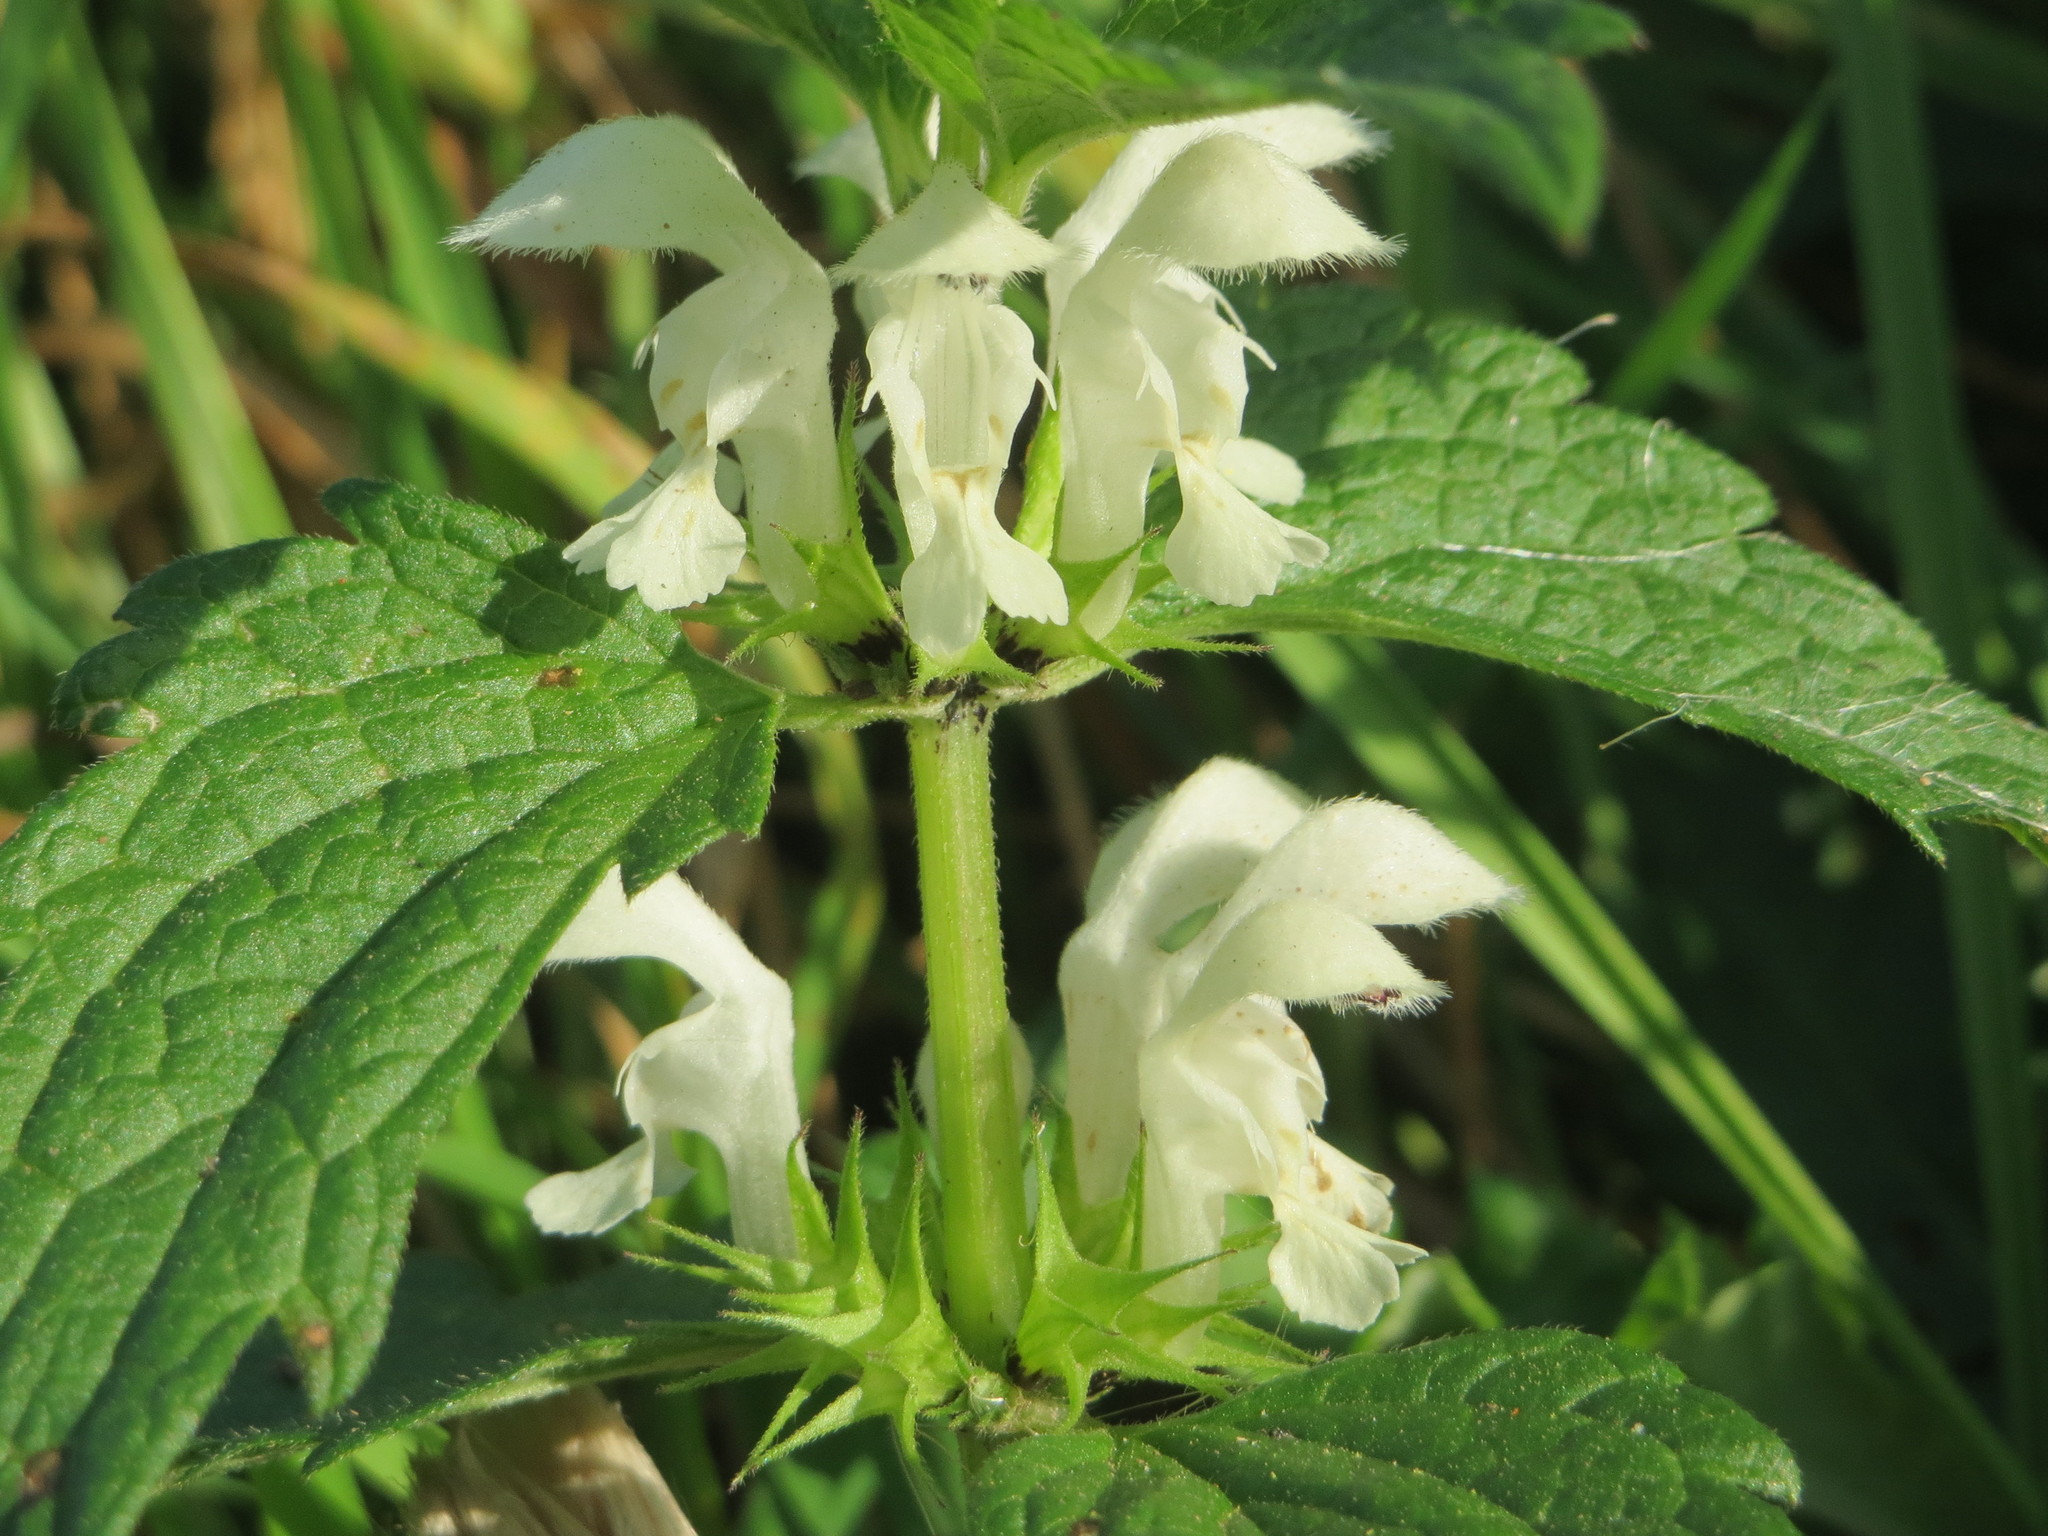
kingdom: Plantae
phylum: Tracheophyta
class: Magnoliopsida
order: Lamiales
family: Lamiaceae
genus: Lamium
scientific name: Lamium album
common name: White dead-nettle
